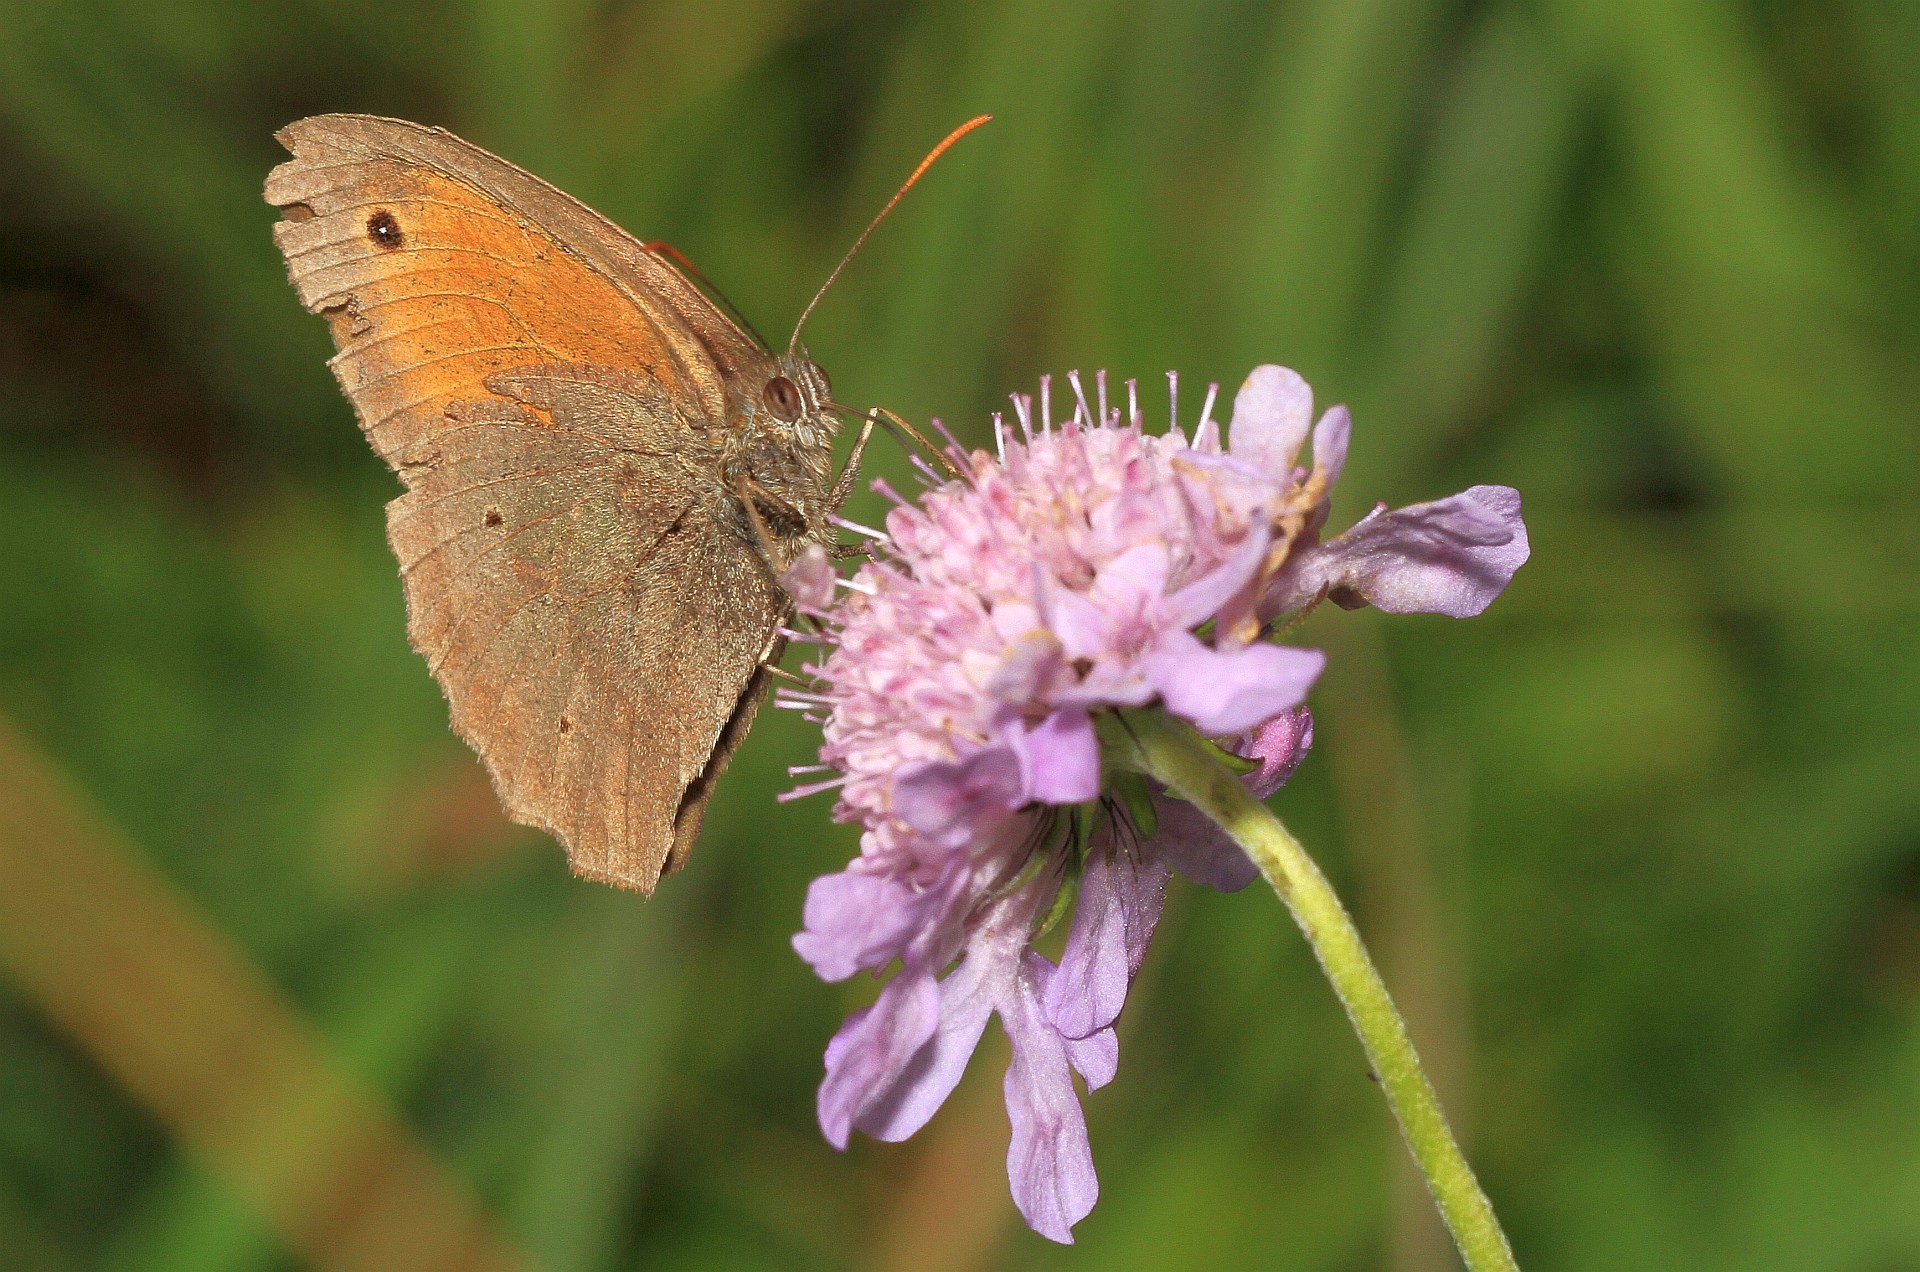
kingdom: Animalia
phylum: Arthropoda
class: Insecta
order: Lepidoptera
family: Nymphalidae
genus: Maniola
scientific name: Maniola jurtina
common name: Meadow brown
